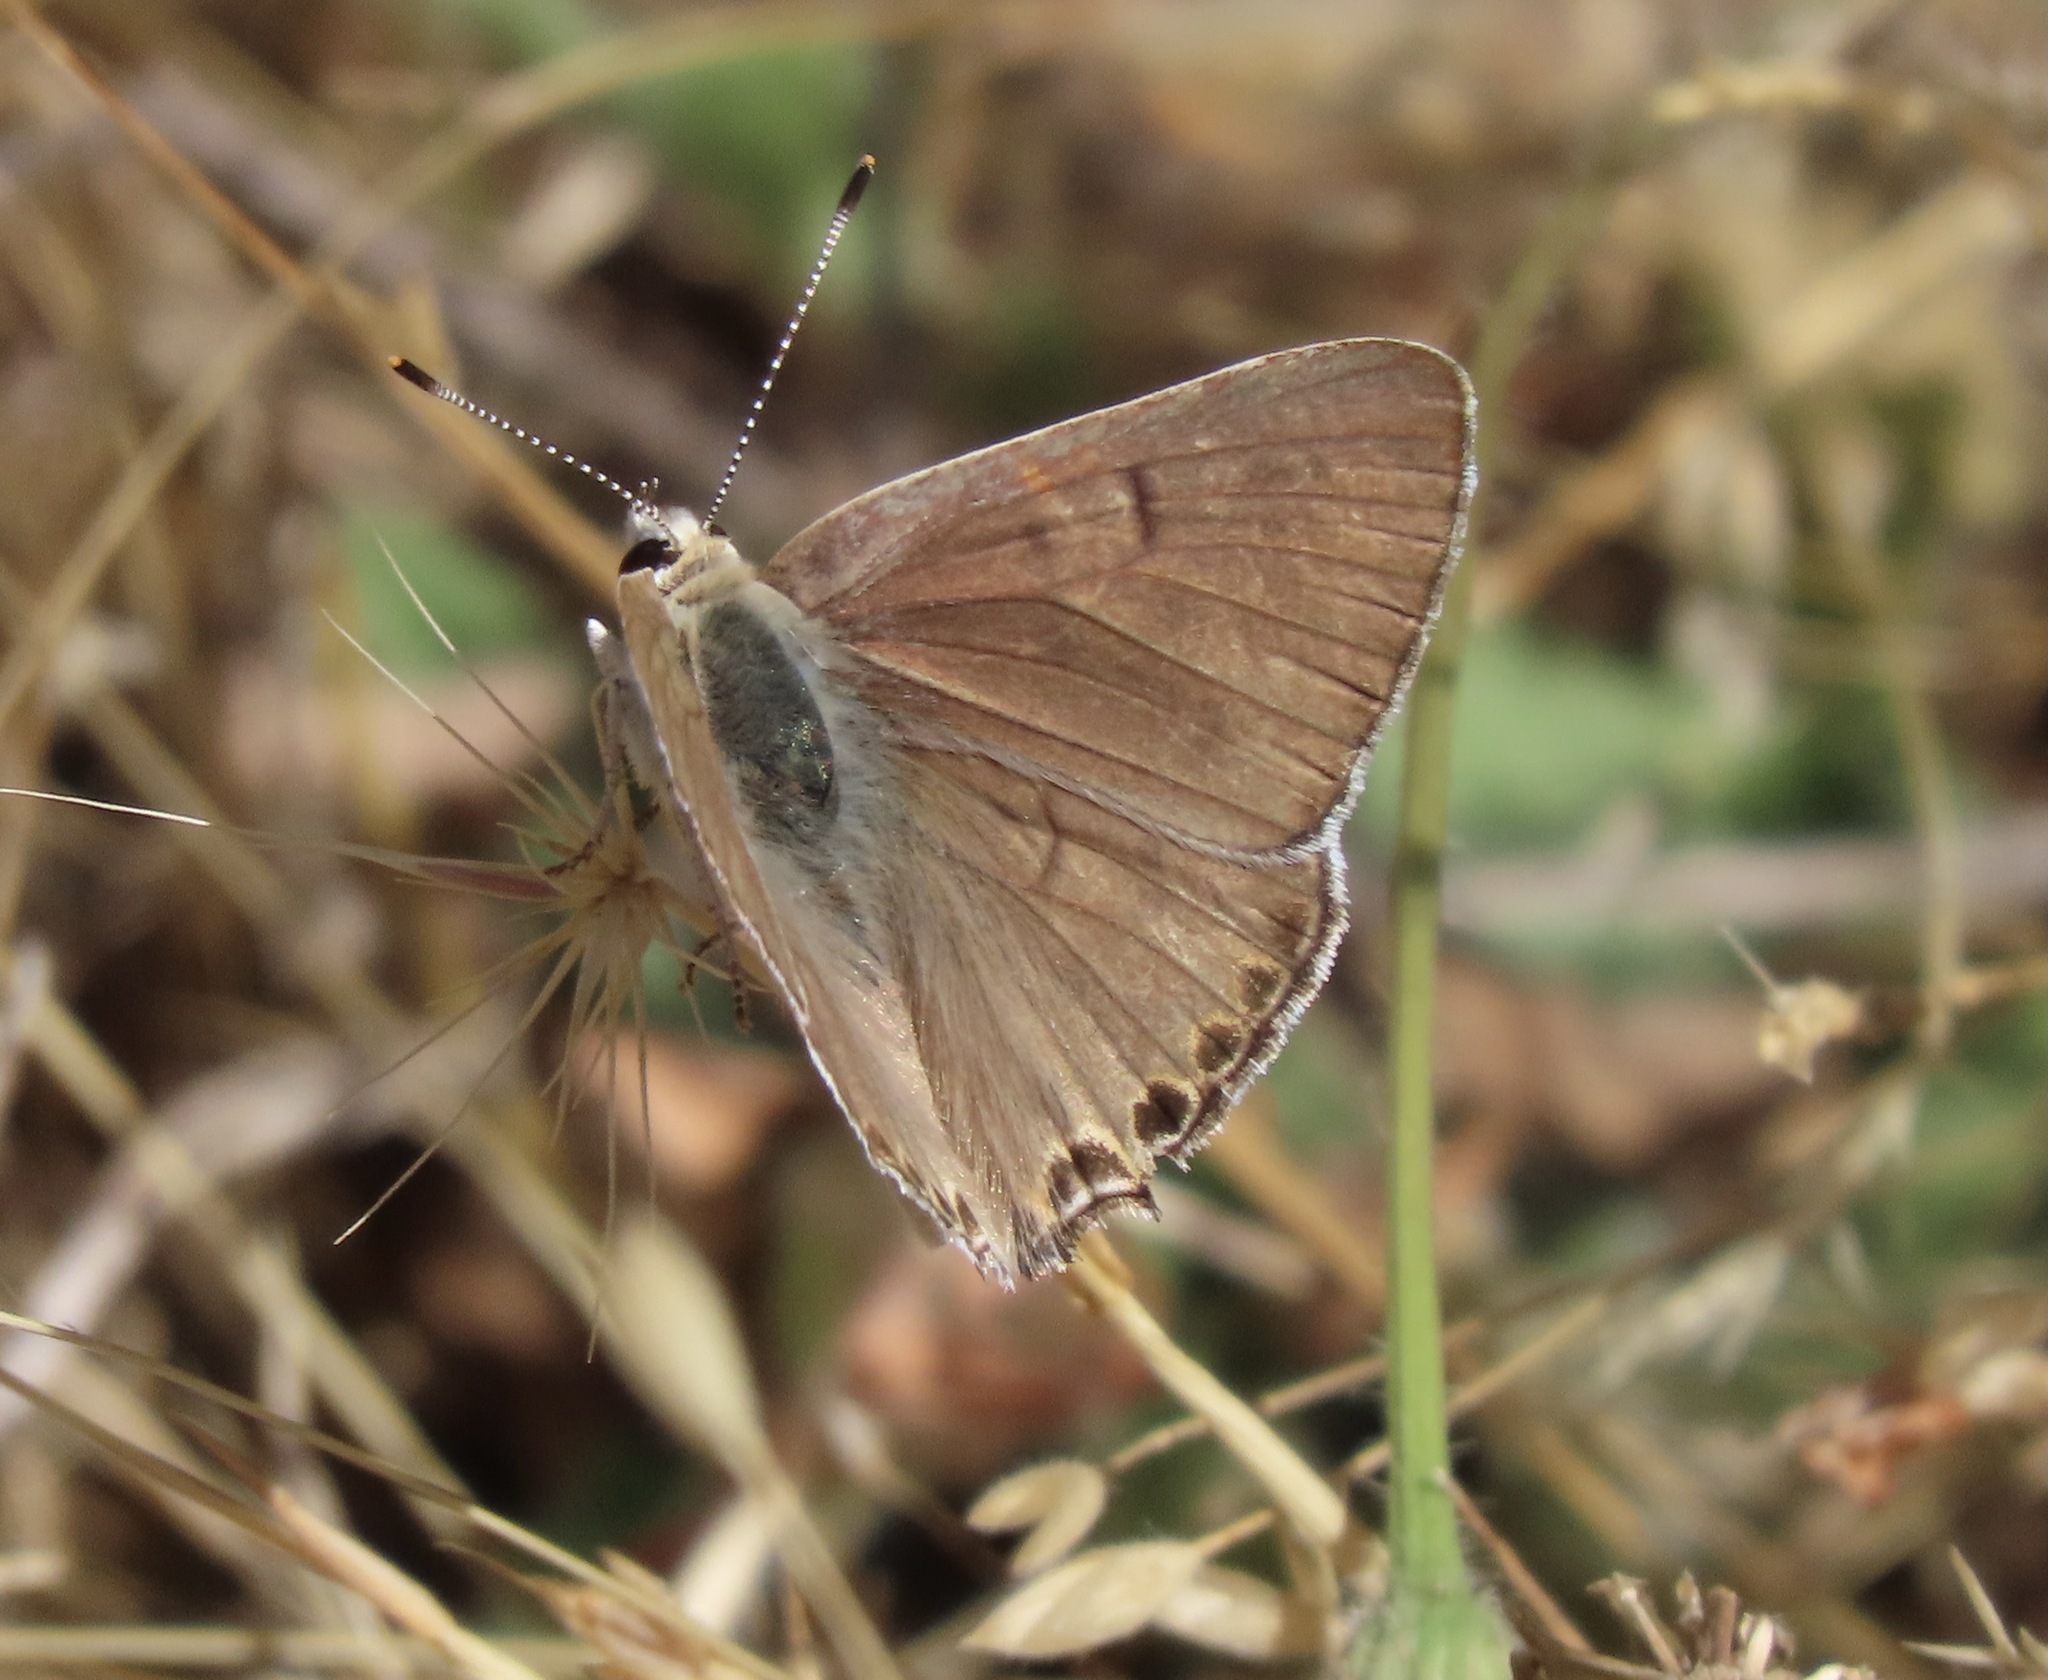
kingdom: Animalia
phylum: Arthropoda
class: Insecta
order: Lepidoptera
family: Lycaenidae
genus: Tharsalea
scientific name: Tharsalea xanthoides
